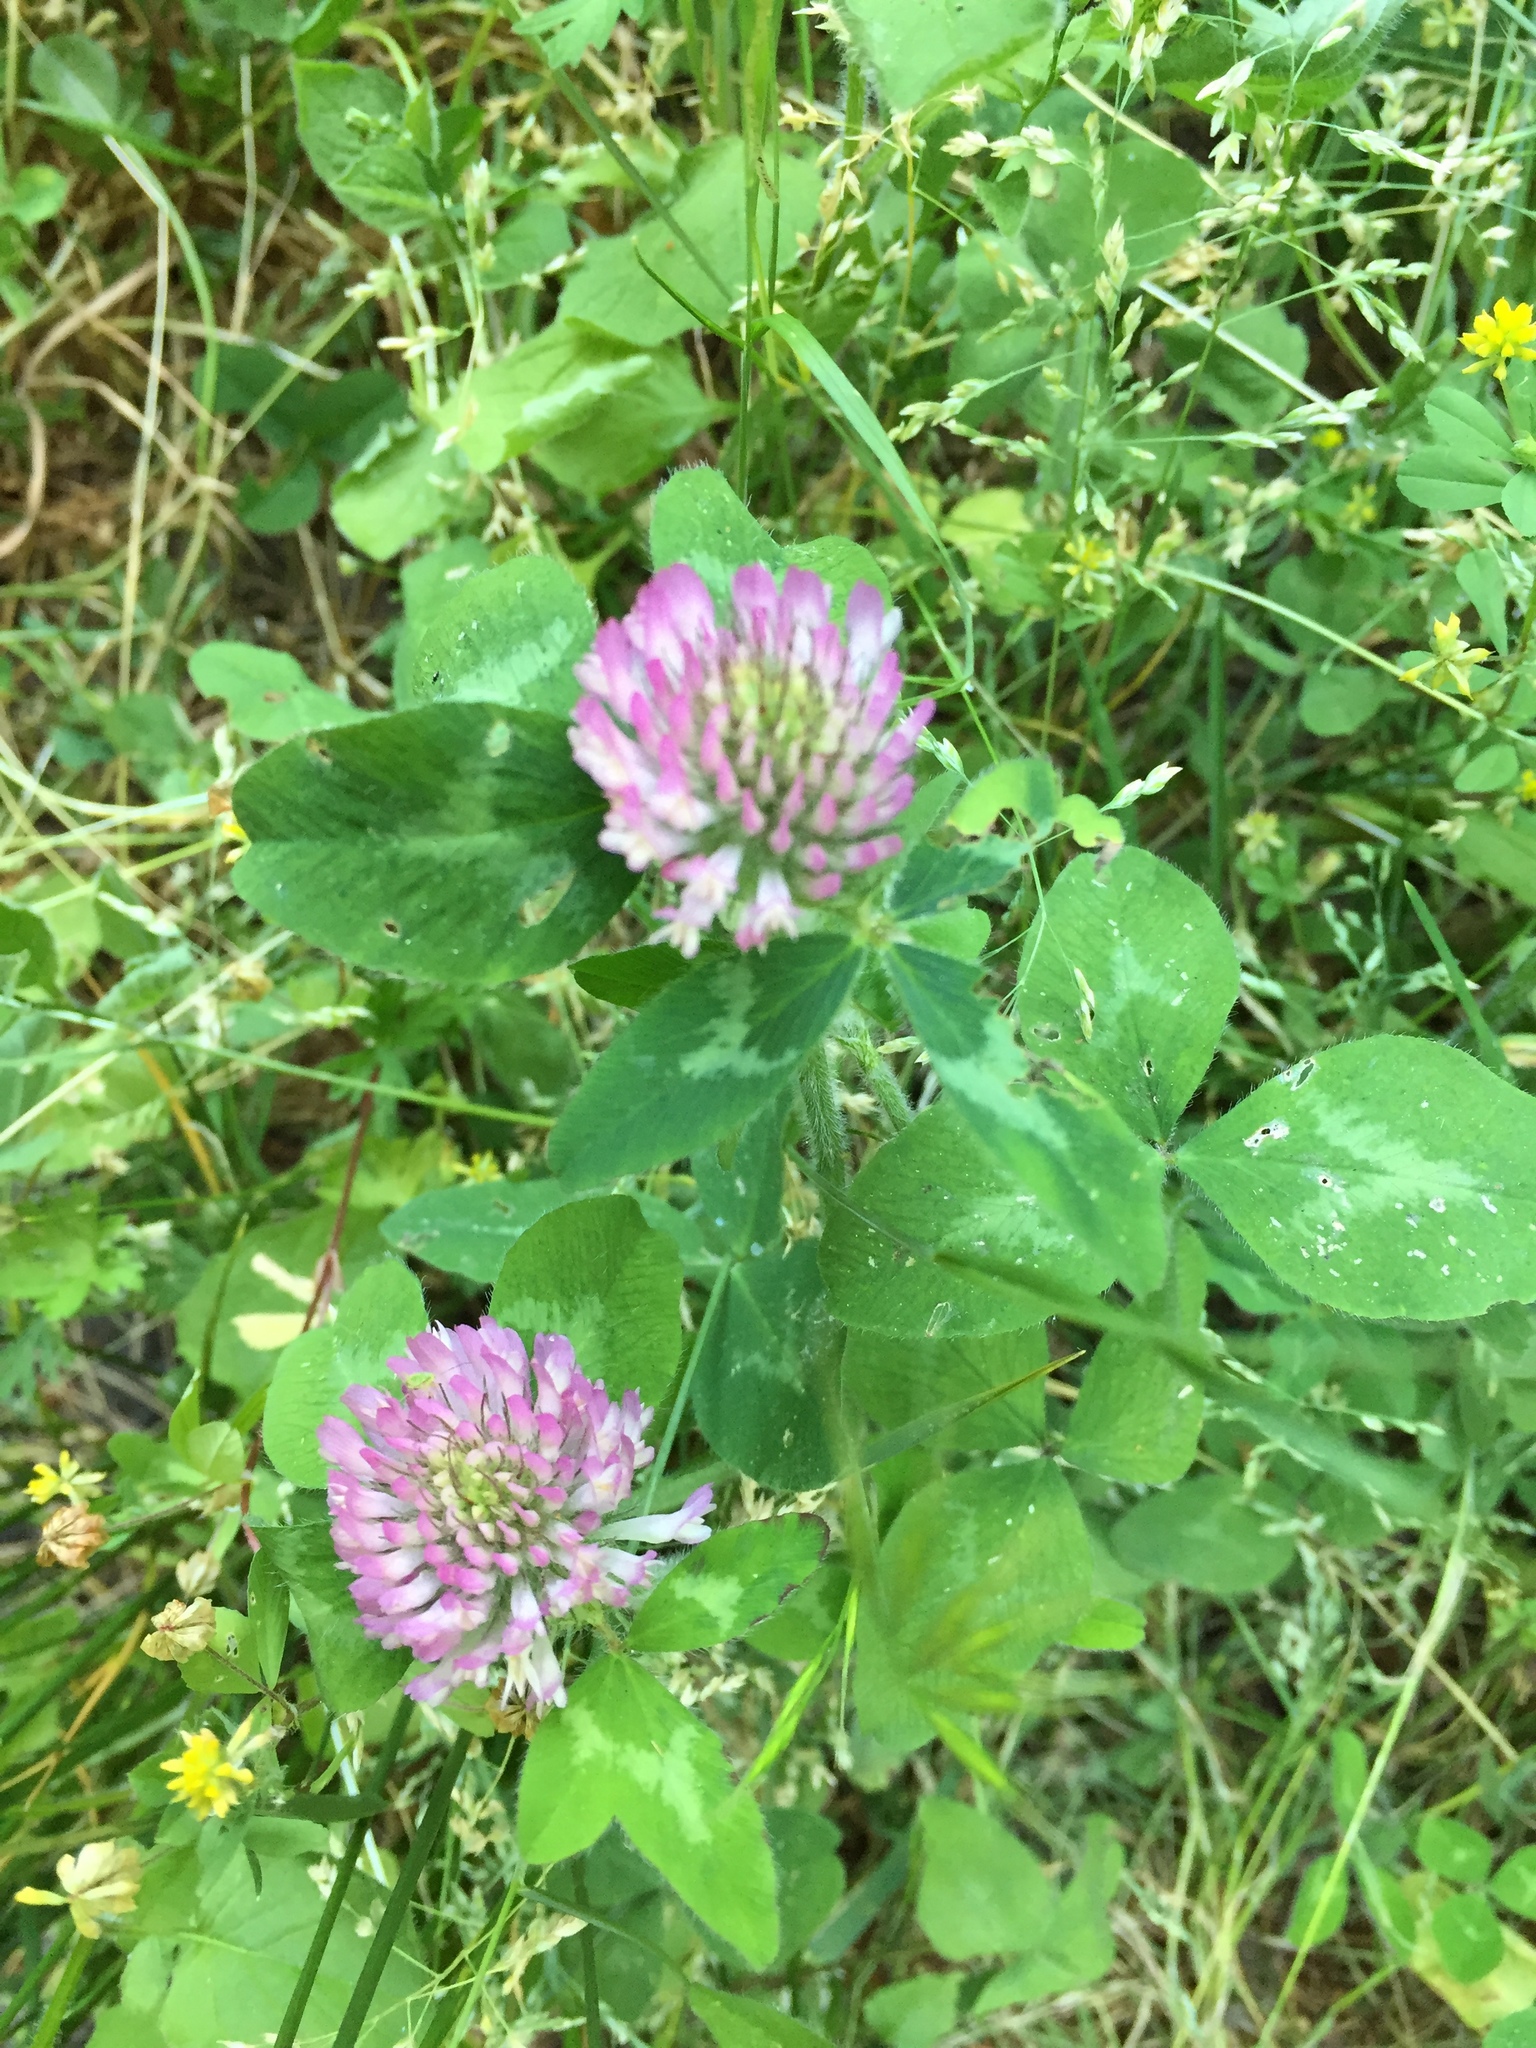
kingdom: Plantae
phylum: Tracheophyta
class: Magnoliopsida
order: Fabales
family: Fabaceae
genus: Trifolium
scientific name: Trifolium pratense
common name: Red clover
